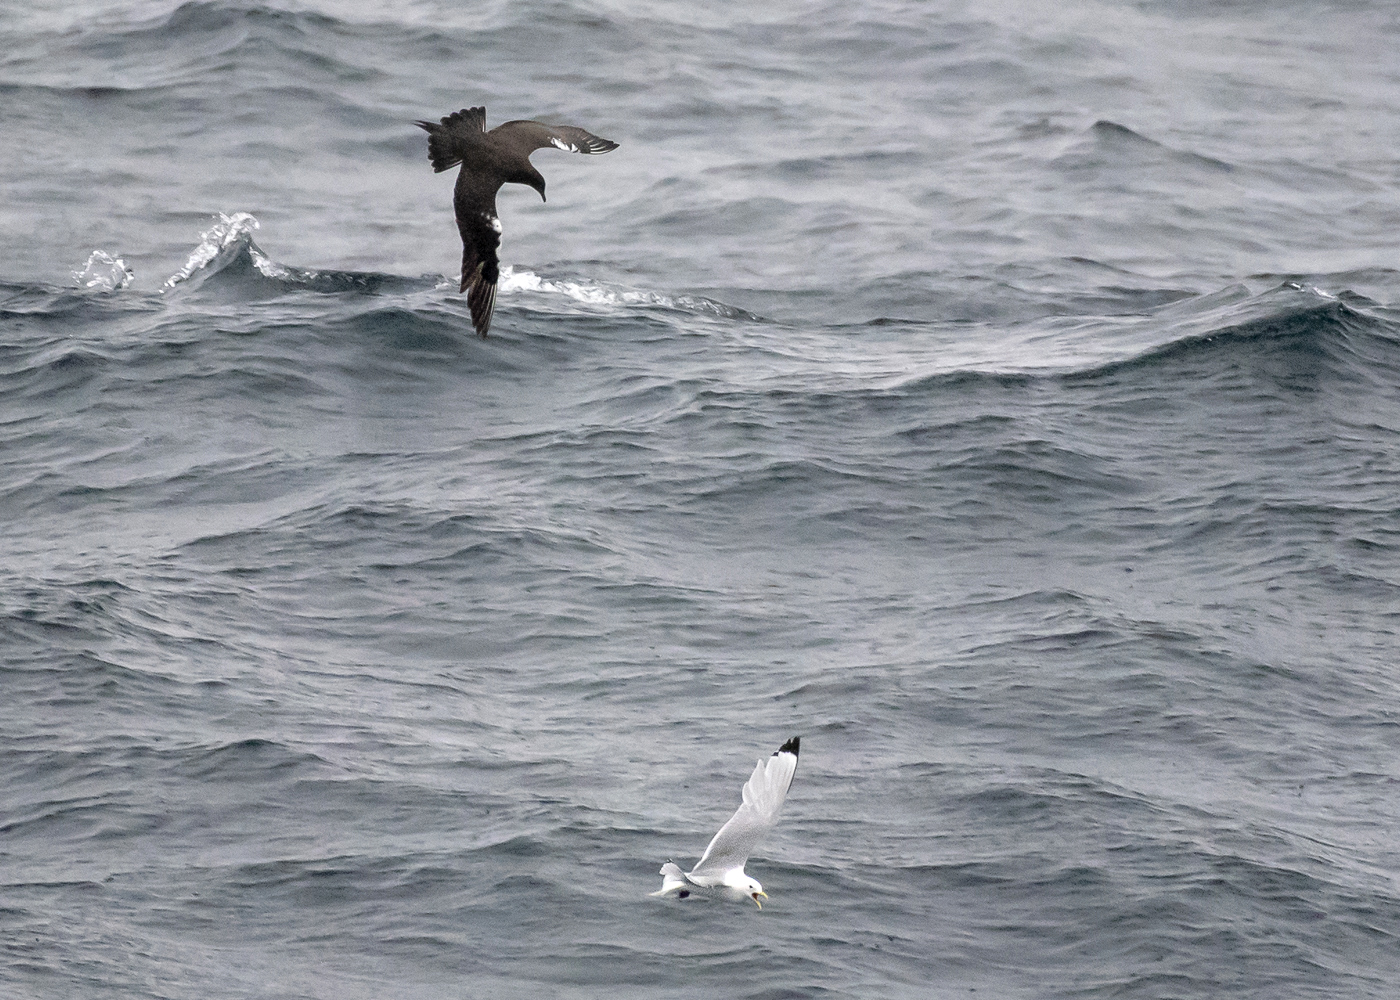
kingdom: Animalia
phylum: Chordata
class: Aves
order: Charadriiformes
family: Stercorariidae
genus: Stercorarius
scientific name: Stercorarius parasiticus
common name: Parasitic jaeger
